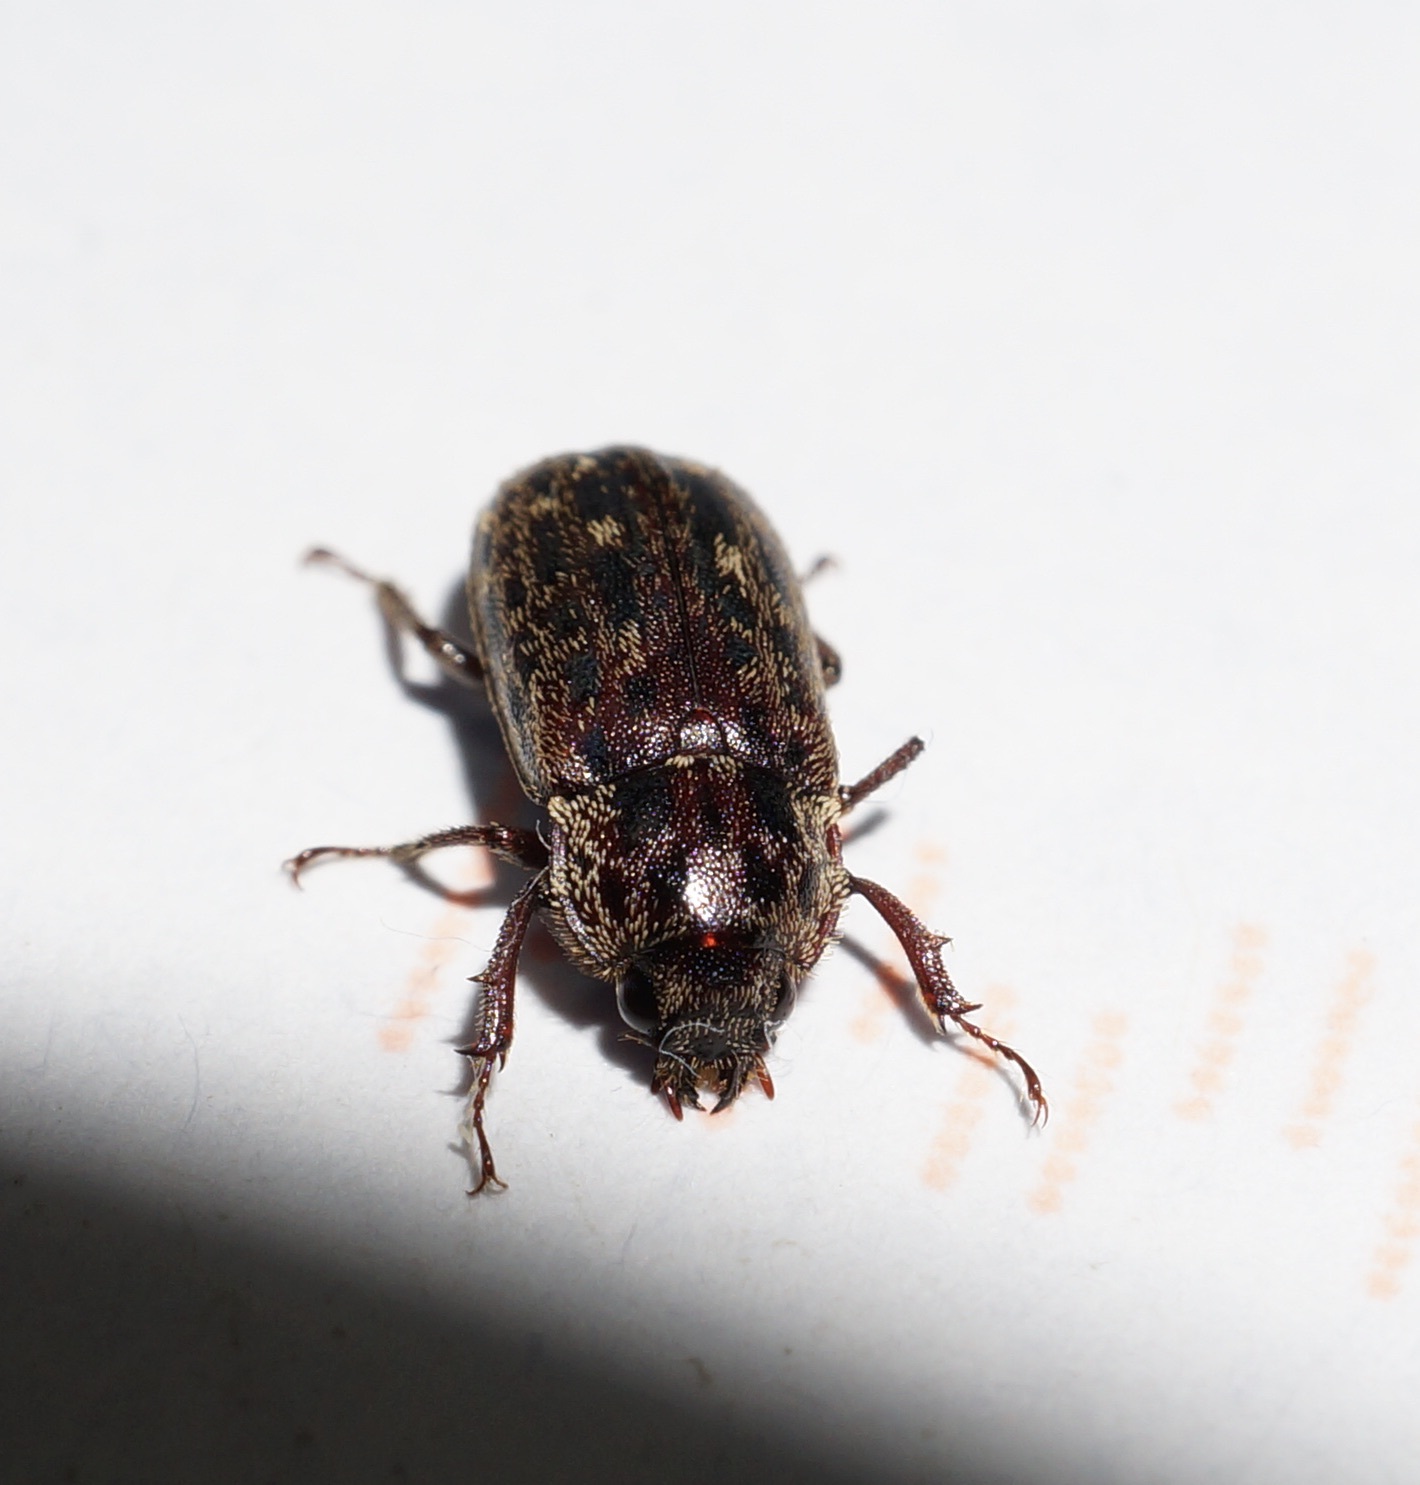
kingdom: Animalia
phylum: Arthropoda
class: Insecta
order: Coleoptera
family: Lucanidae
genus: Mitophyllus
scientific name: Mitophyllus arcuatus
